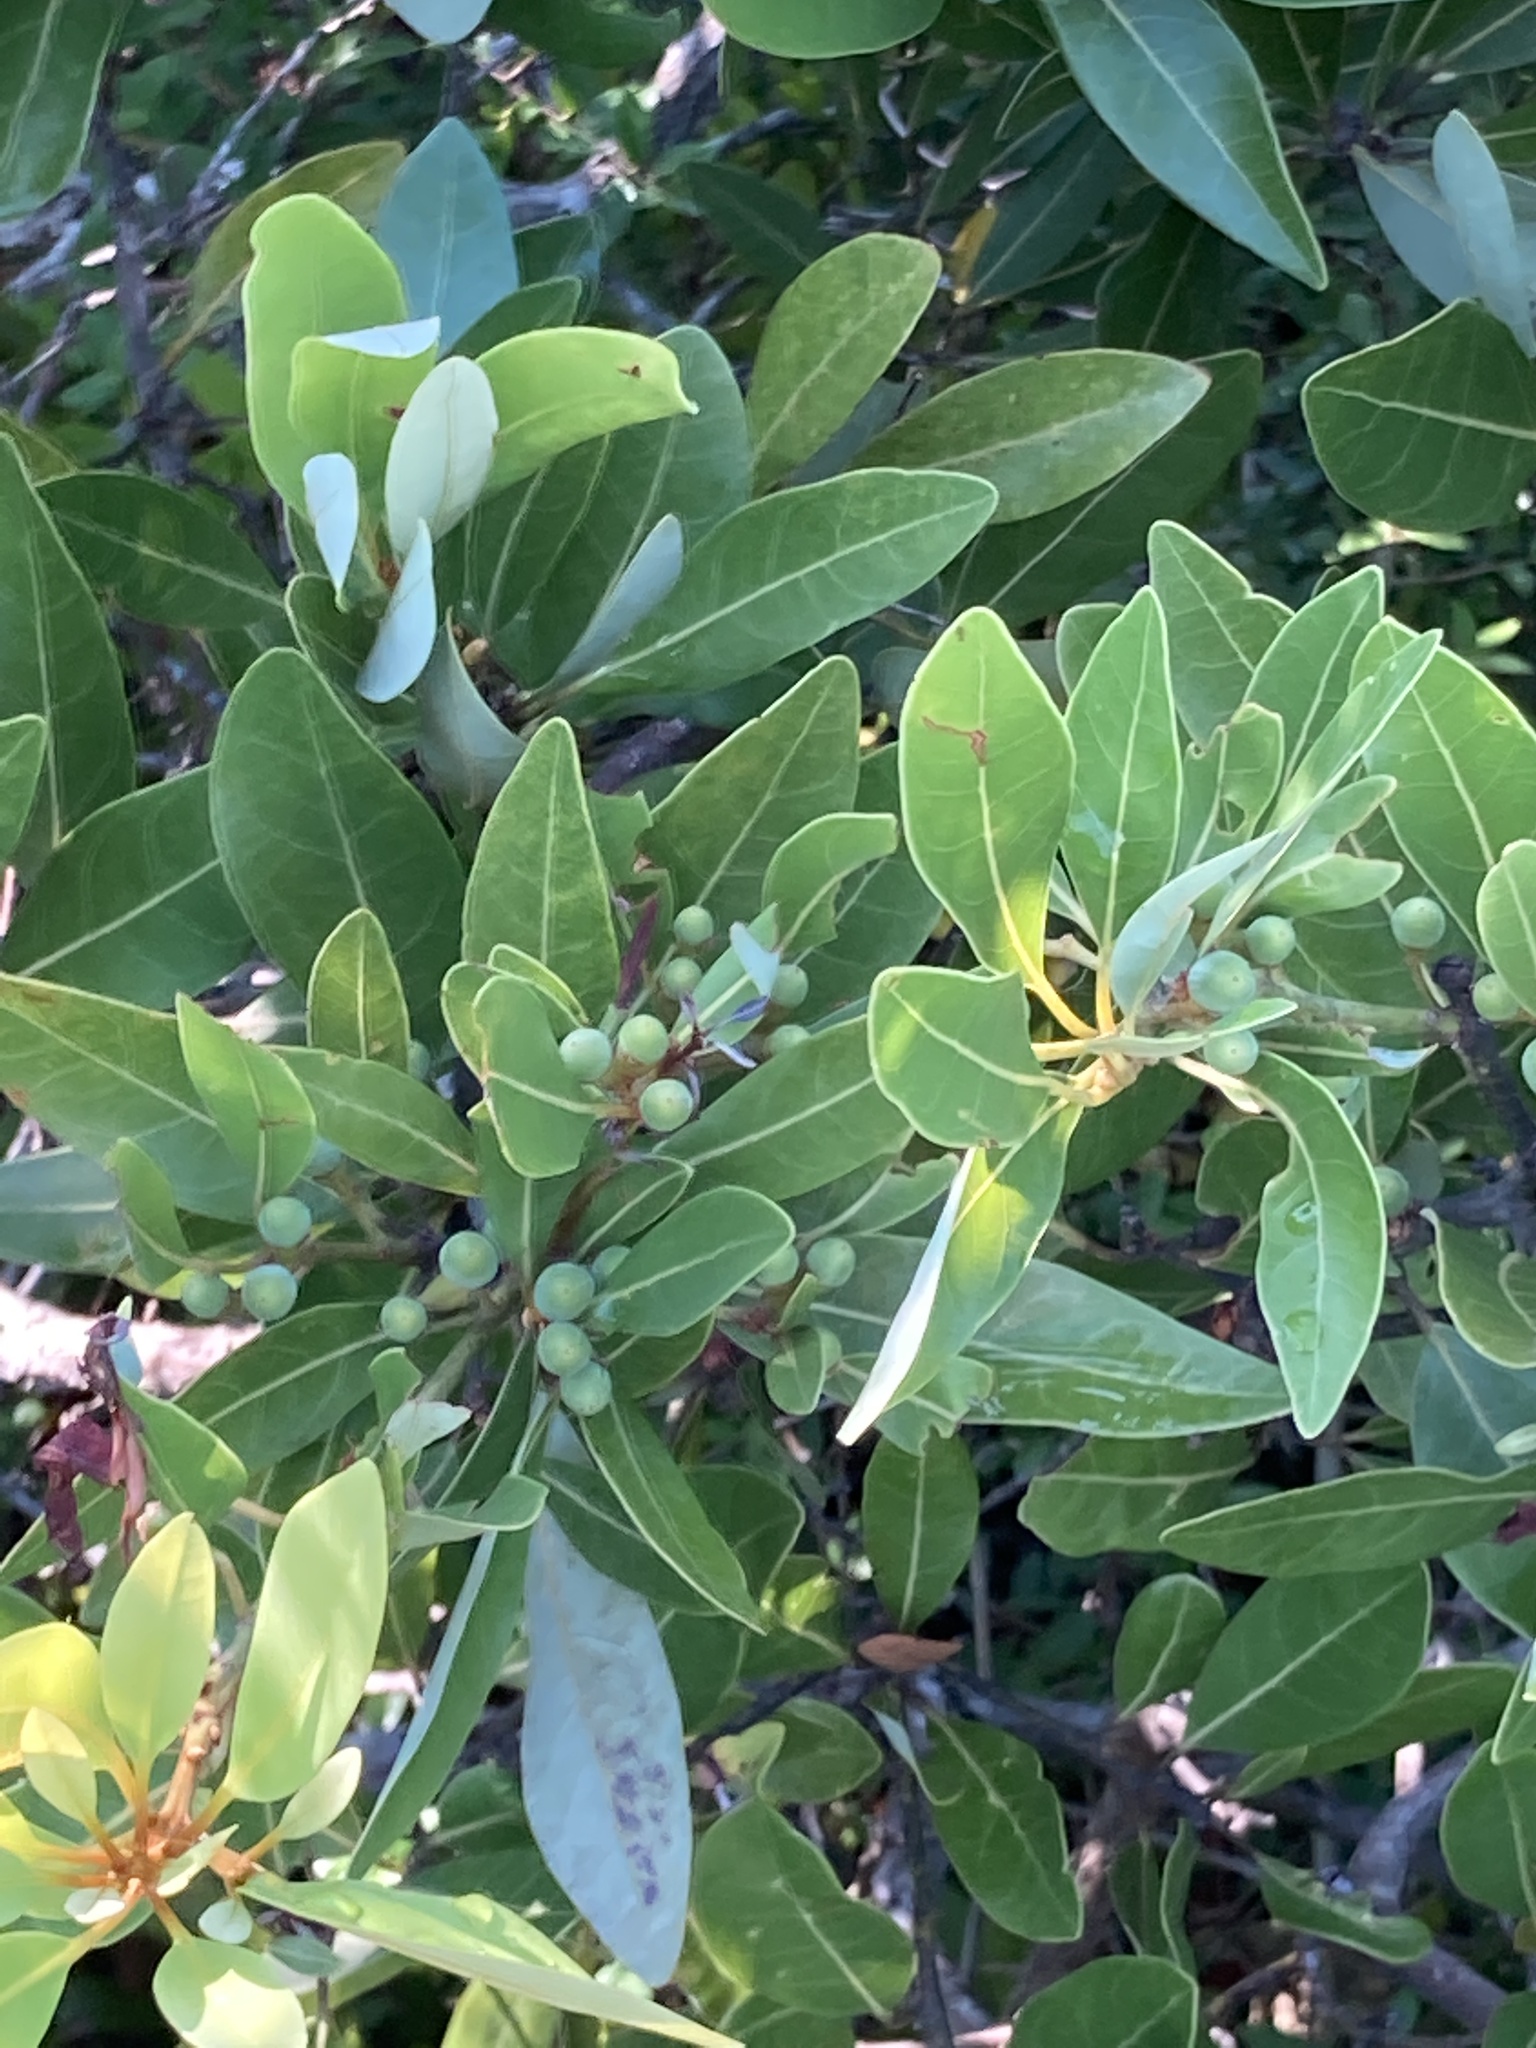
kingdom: Plantae
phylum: Tracheophyta
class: Magnoliopsida
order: Laurales
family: Lauraceae
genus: Persea
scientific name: Persea borbonia
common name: Redbay
